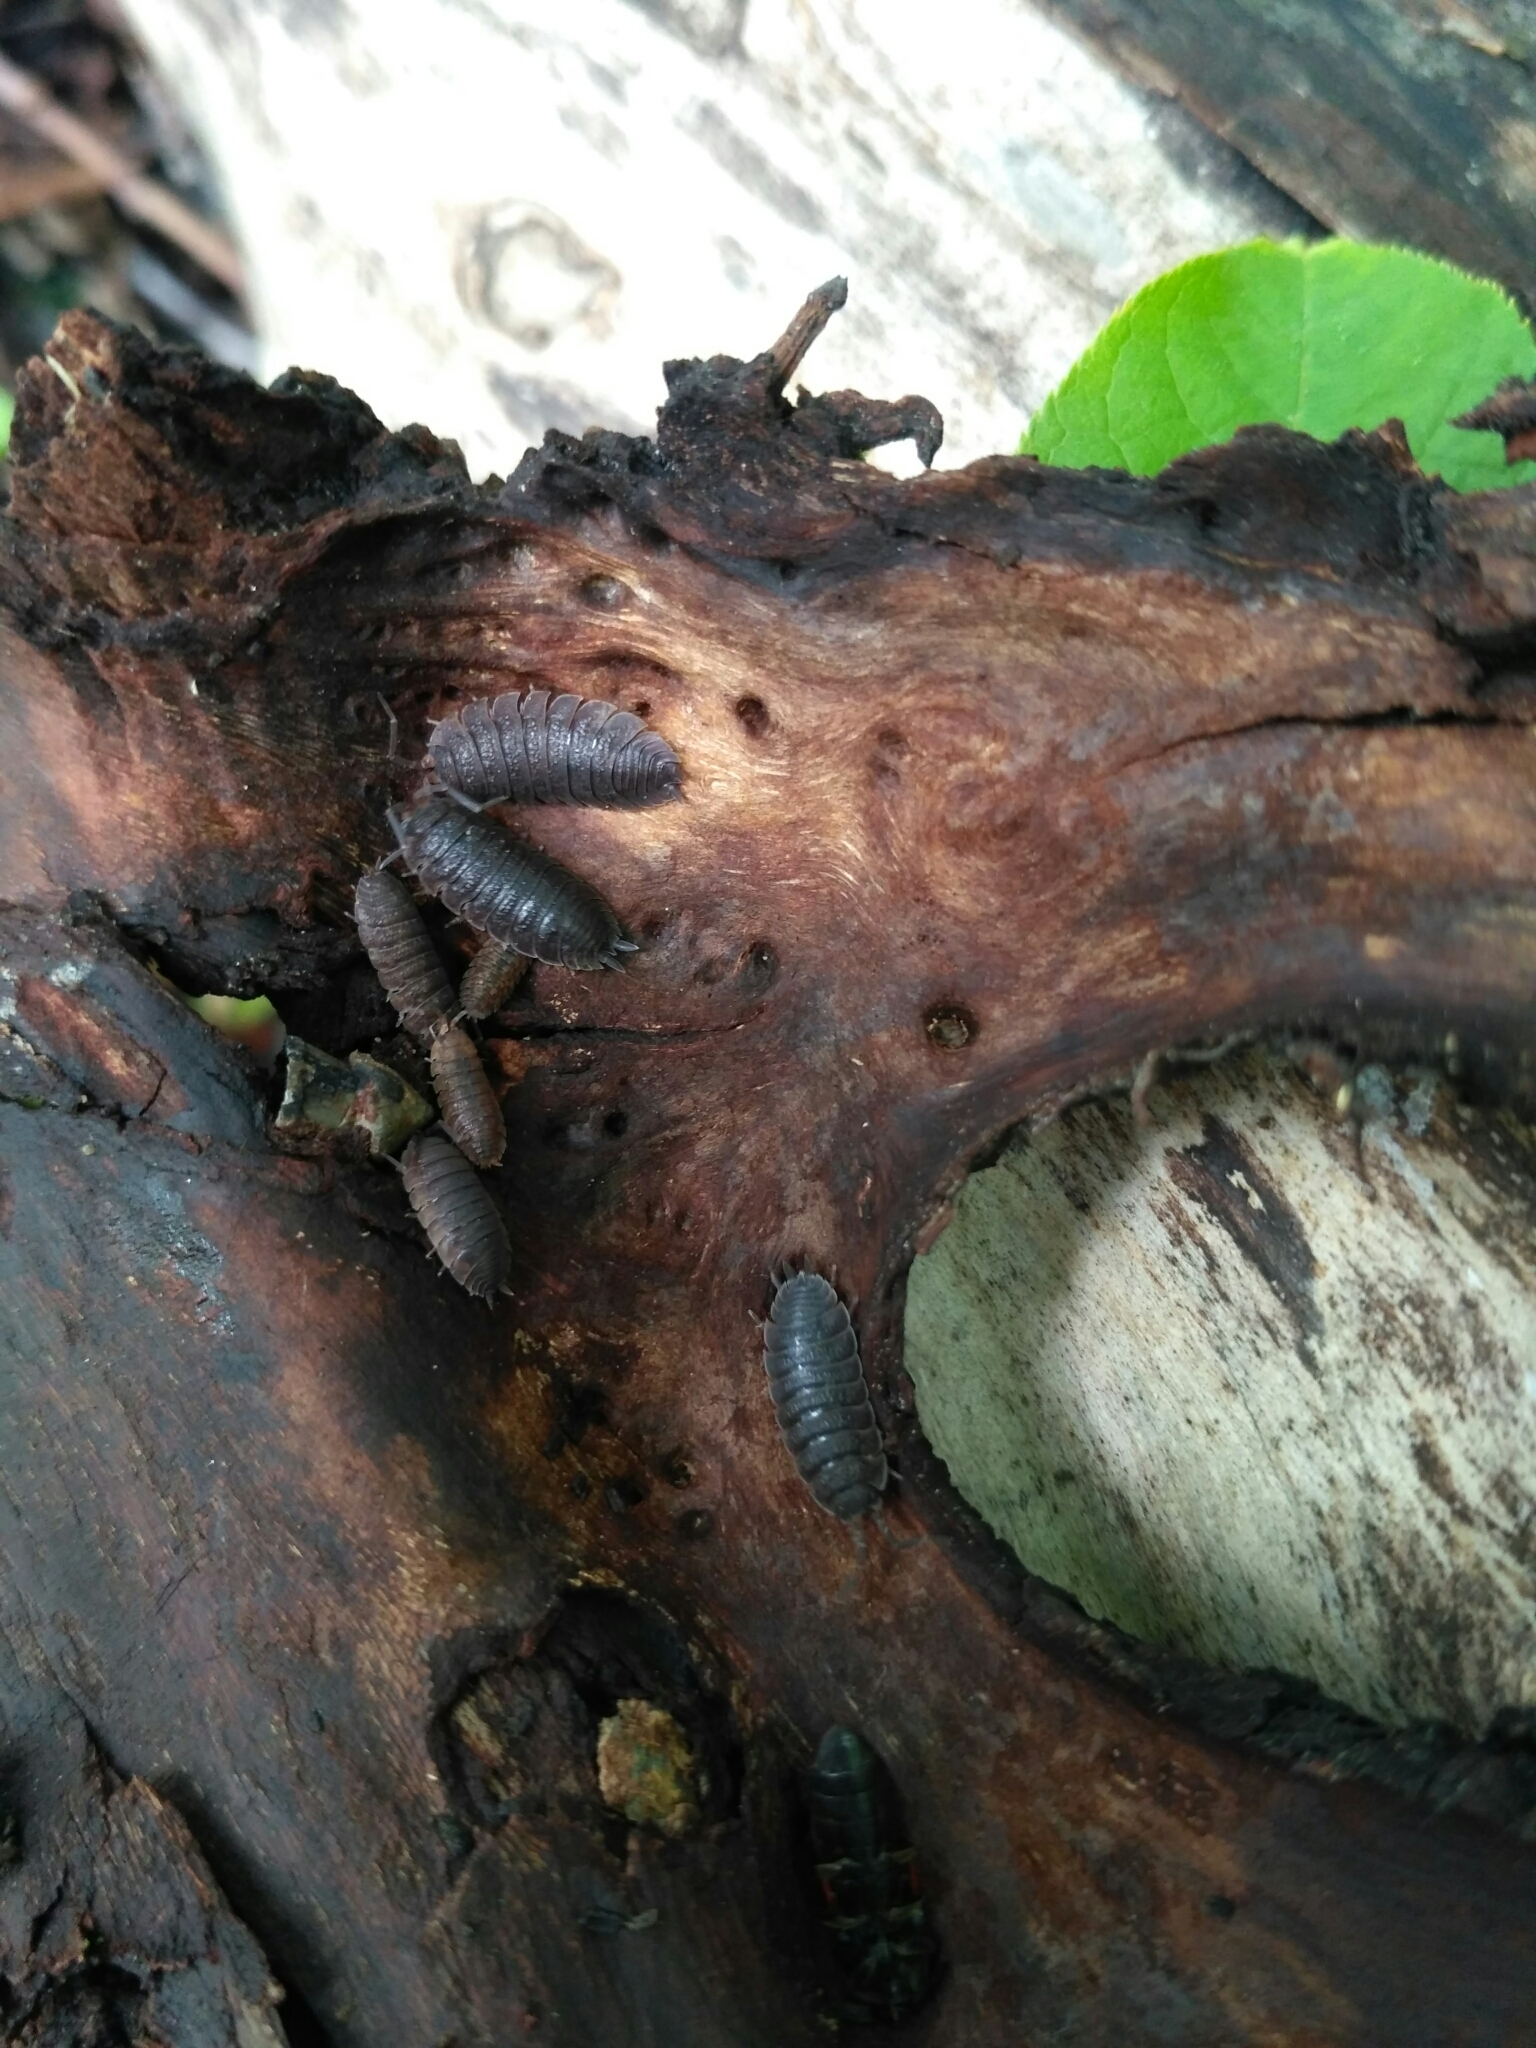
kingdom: Animalia
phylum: Arthropoda
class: Malacostraca
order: Isopoda
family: Porcellionidae
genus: Porcellio
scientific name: Porcellio scaber
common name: Common rough woodlouse
